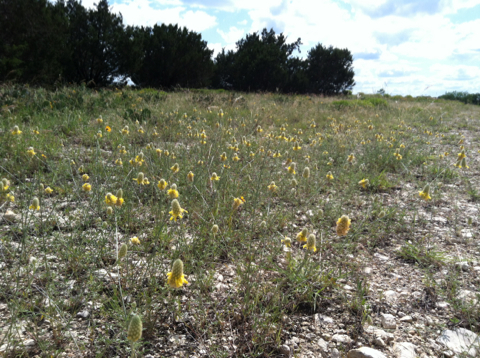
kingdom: Plantae
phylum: Tracheophyta
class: Magnoliopsida
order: Fabales
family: Fabaceae
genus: Dalea
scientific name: Dalea aurea
